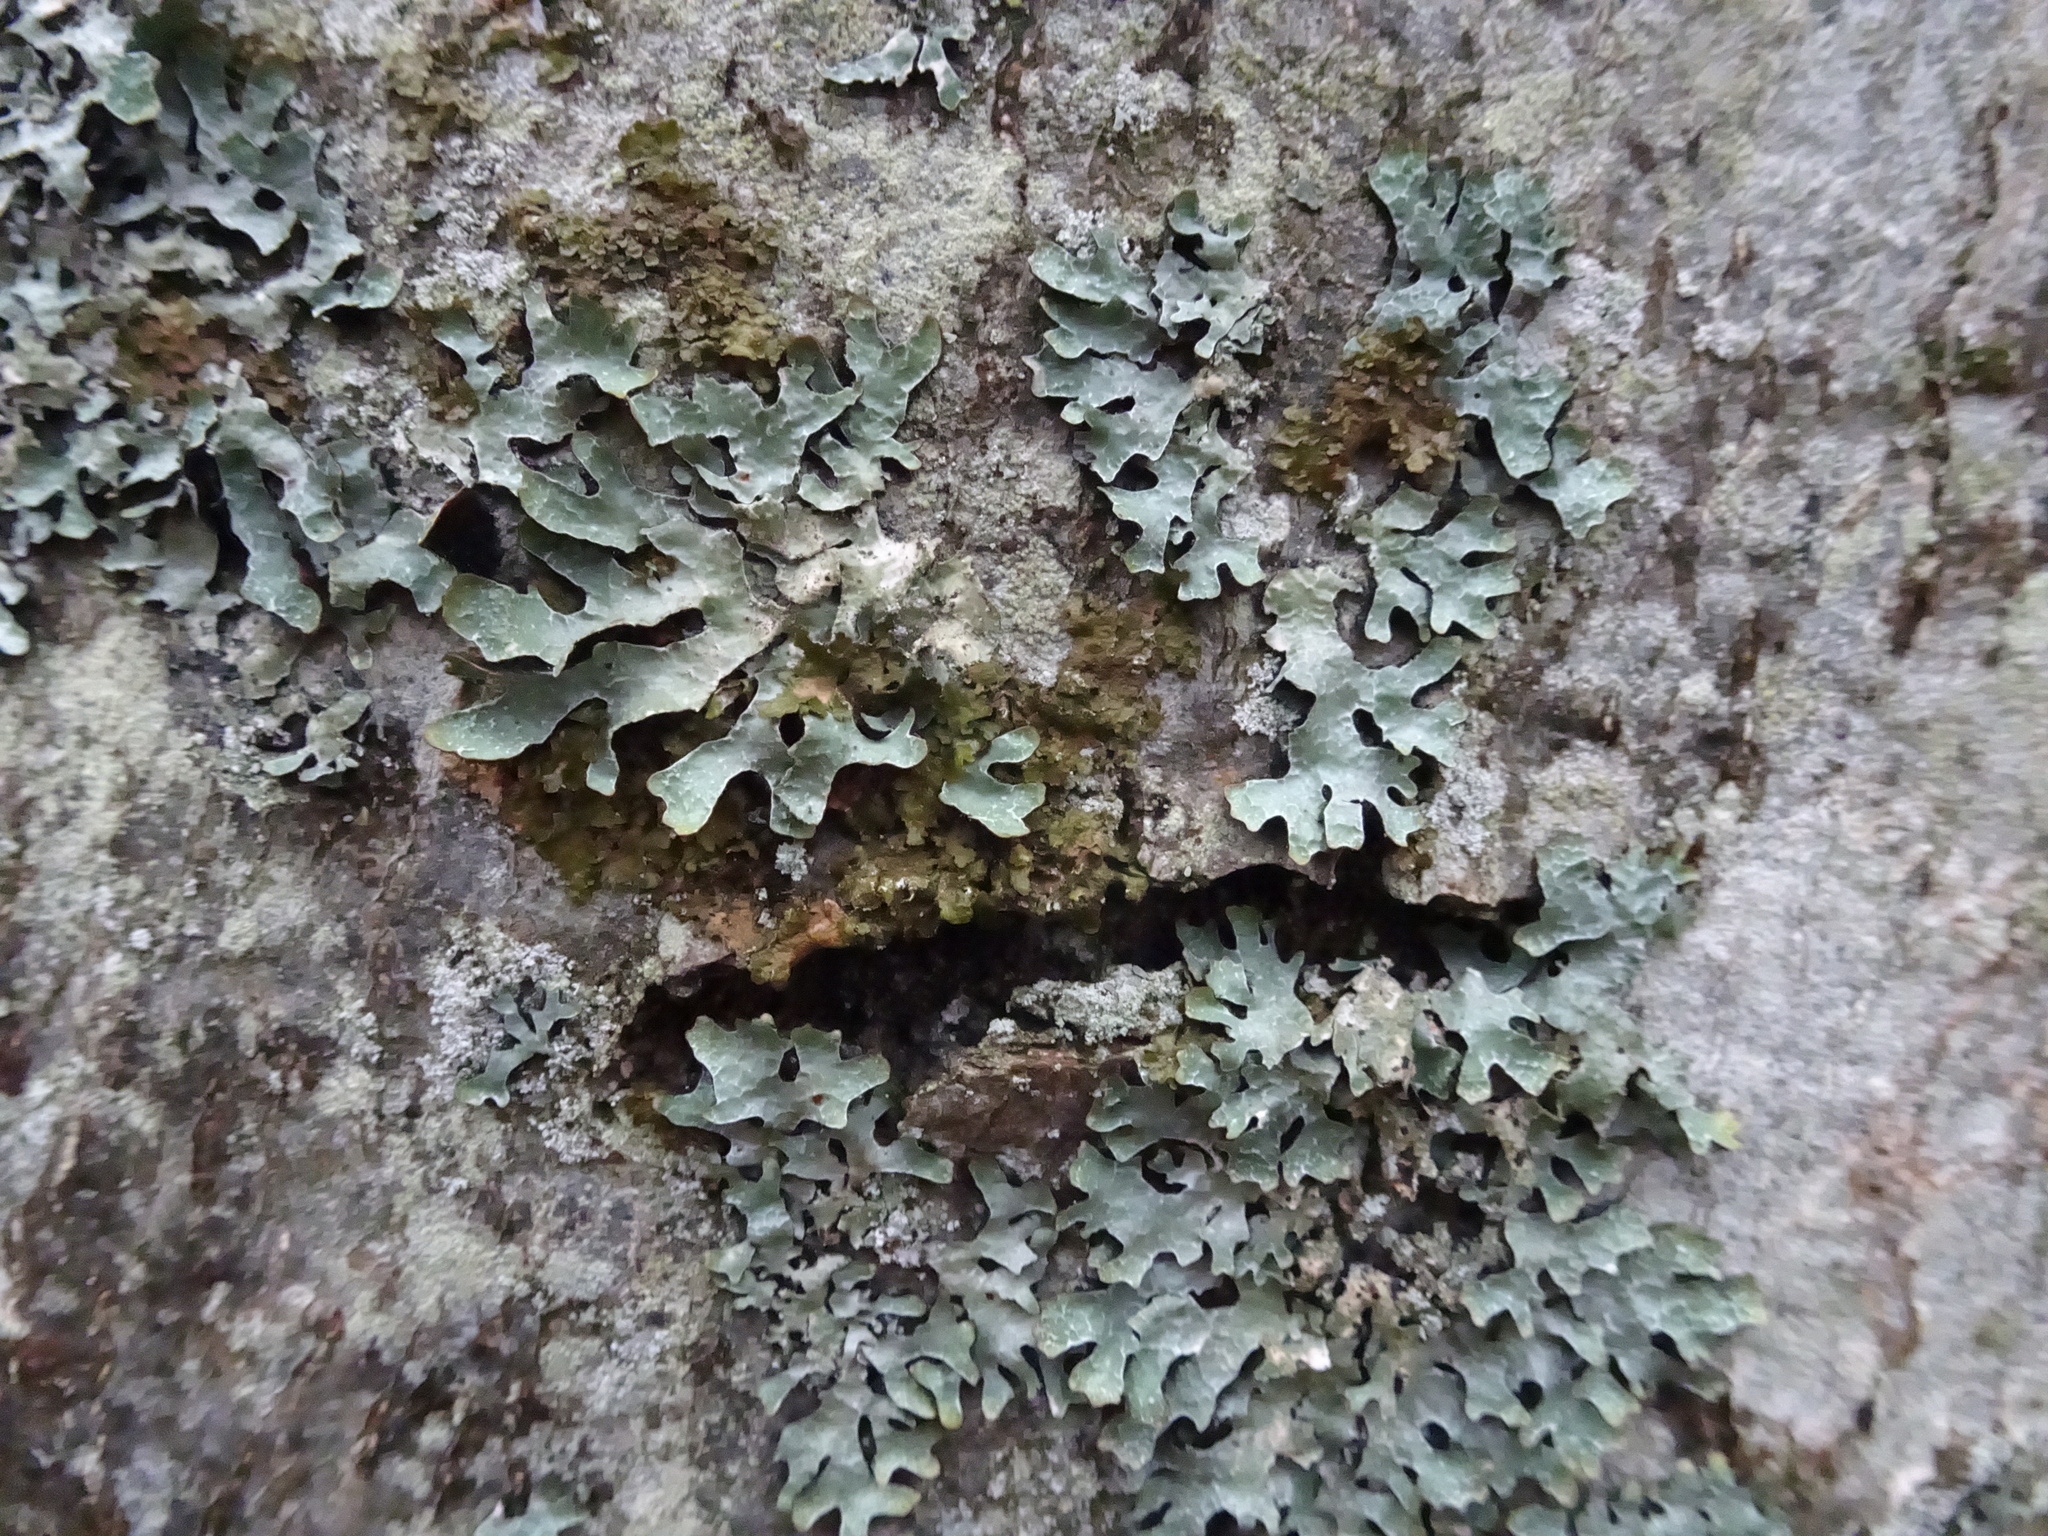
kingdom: Fungi
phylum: Ascomycota
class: Lecanoromycetes
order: Lecanorales
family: Parmeliaceae
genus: Parmelia
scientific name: Parmelia sulcata
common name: Netted shield lichen
